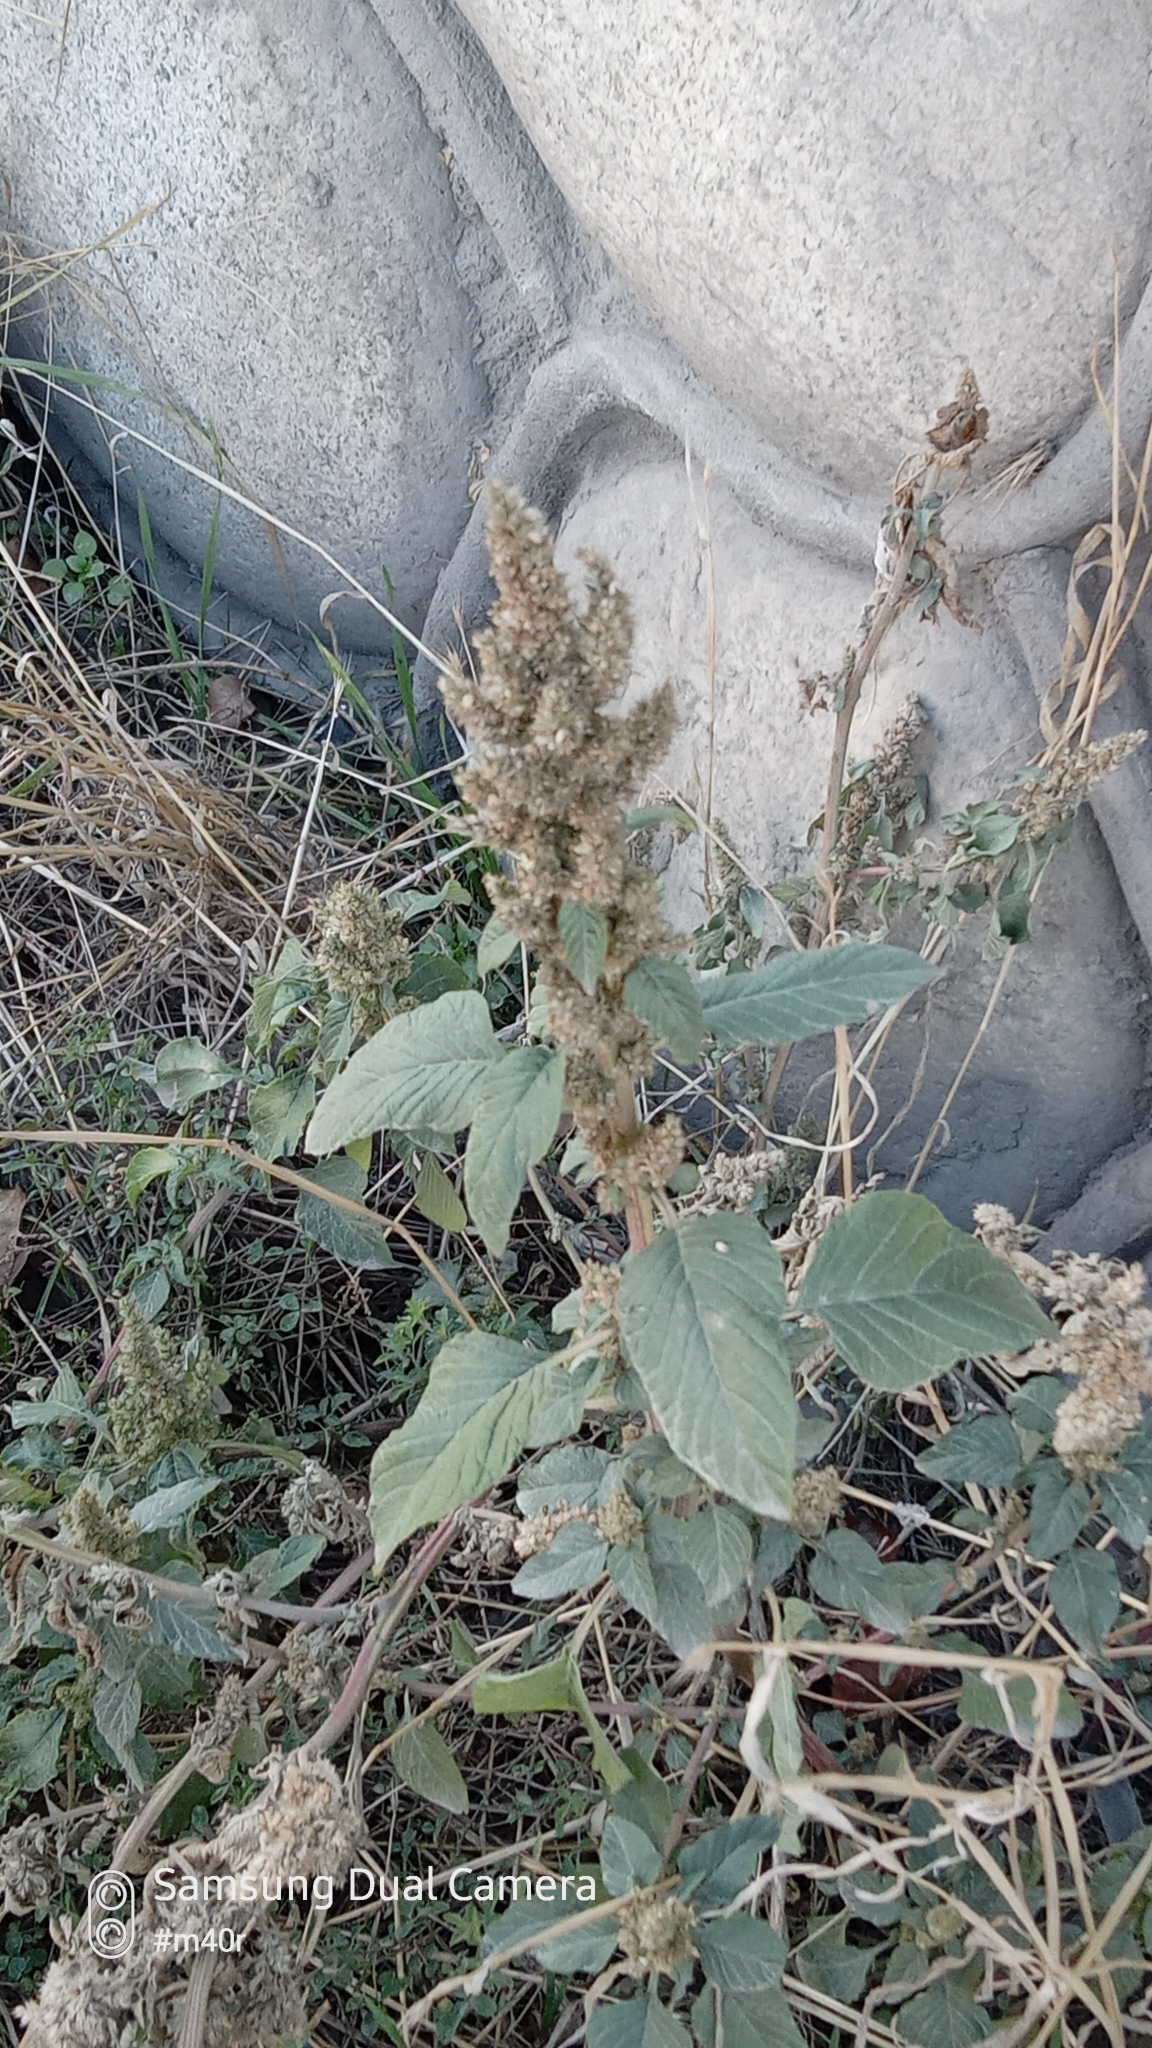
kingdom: Plantae
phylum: Tracheophyta
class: Magnoliopsida
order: Caryophyllales
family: Amaranthaceae
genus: Amaranthus
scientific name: Amaranthus retroflexus
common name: Redroot amaranth
